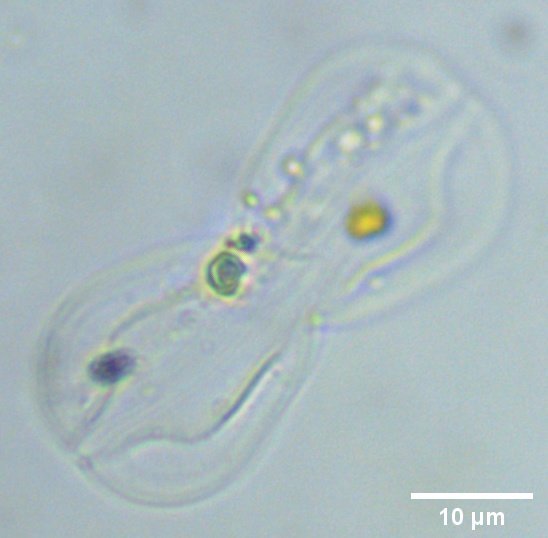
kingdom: Chromista
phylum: Ochrophyta
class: Bacillariophyceae
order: Surirellales
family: Entomoneidaceae
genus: Entomoneis
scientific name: Entomoneis paludosa
